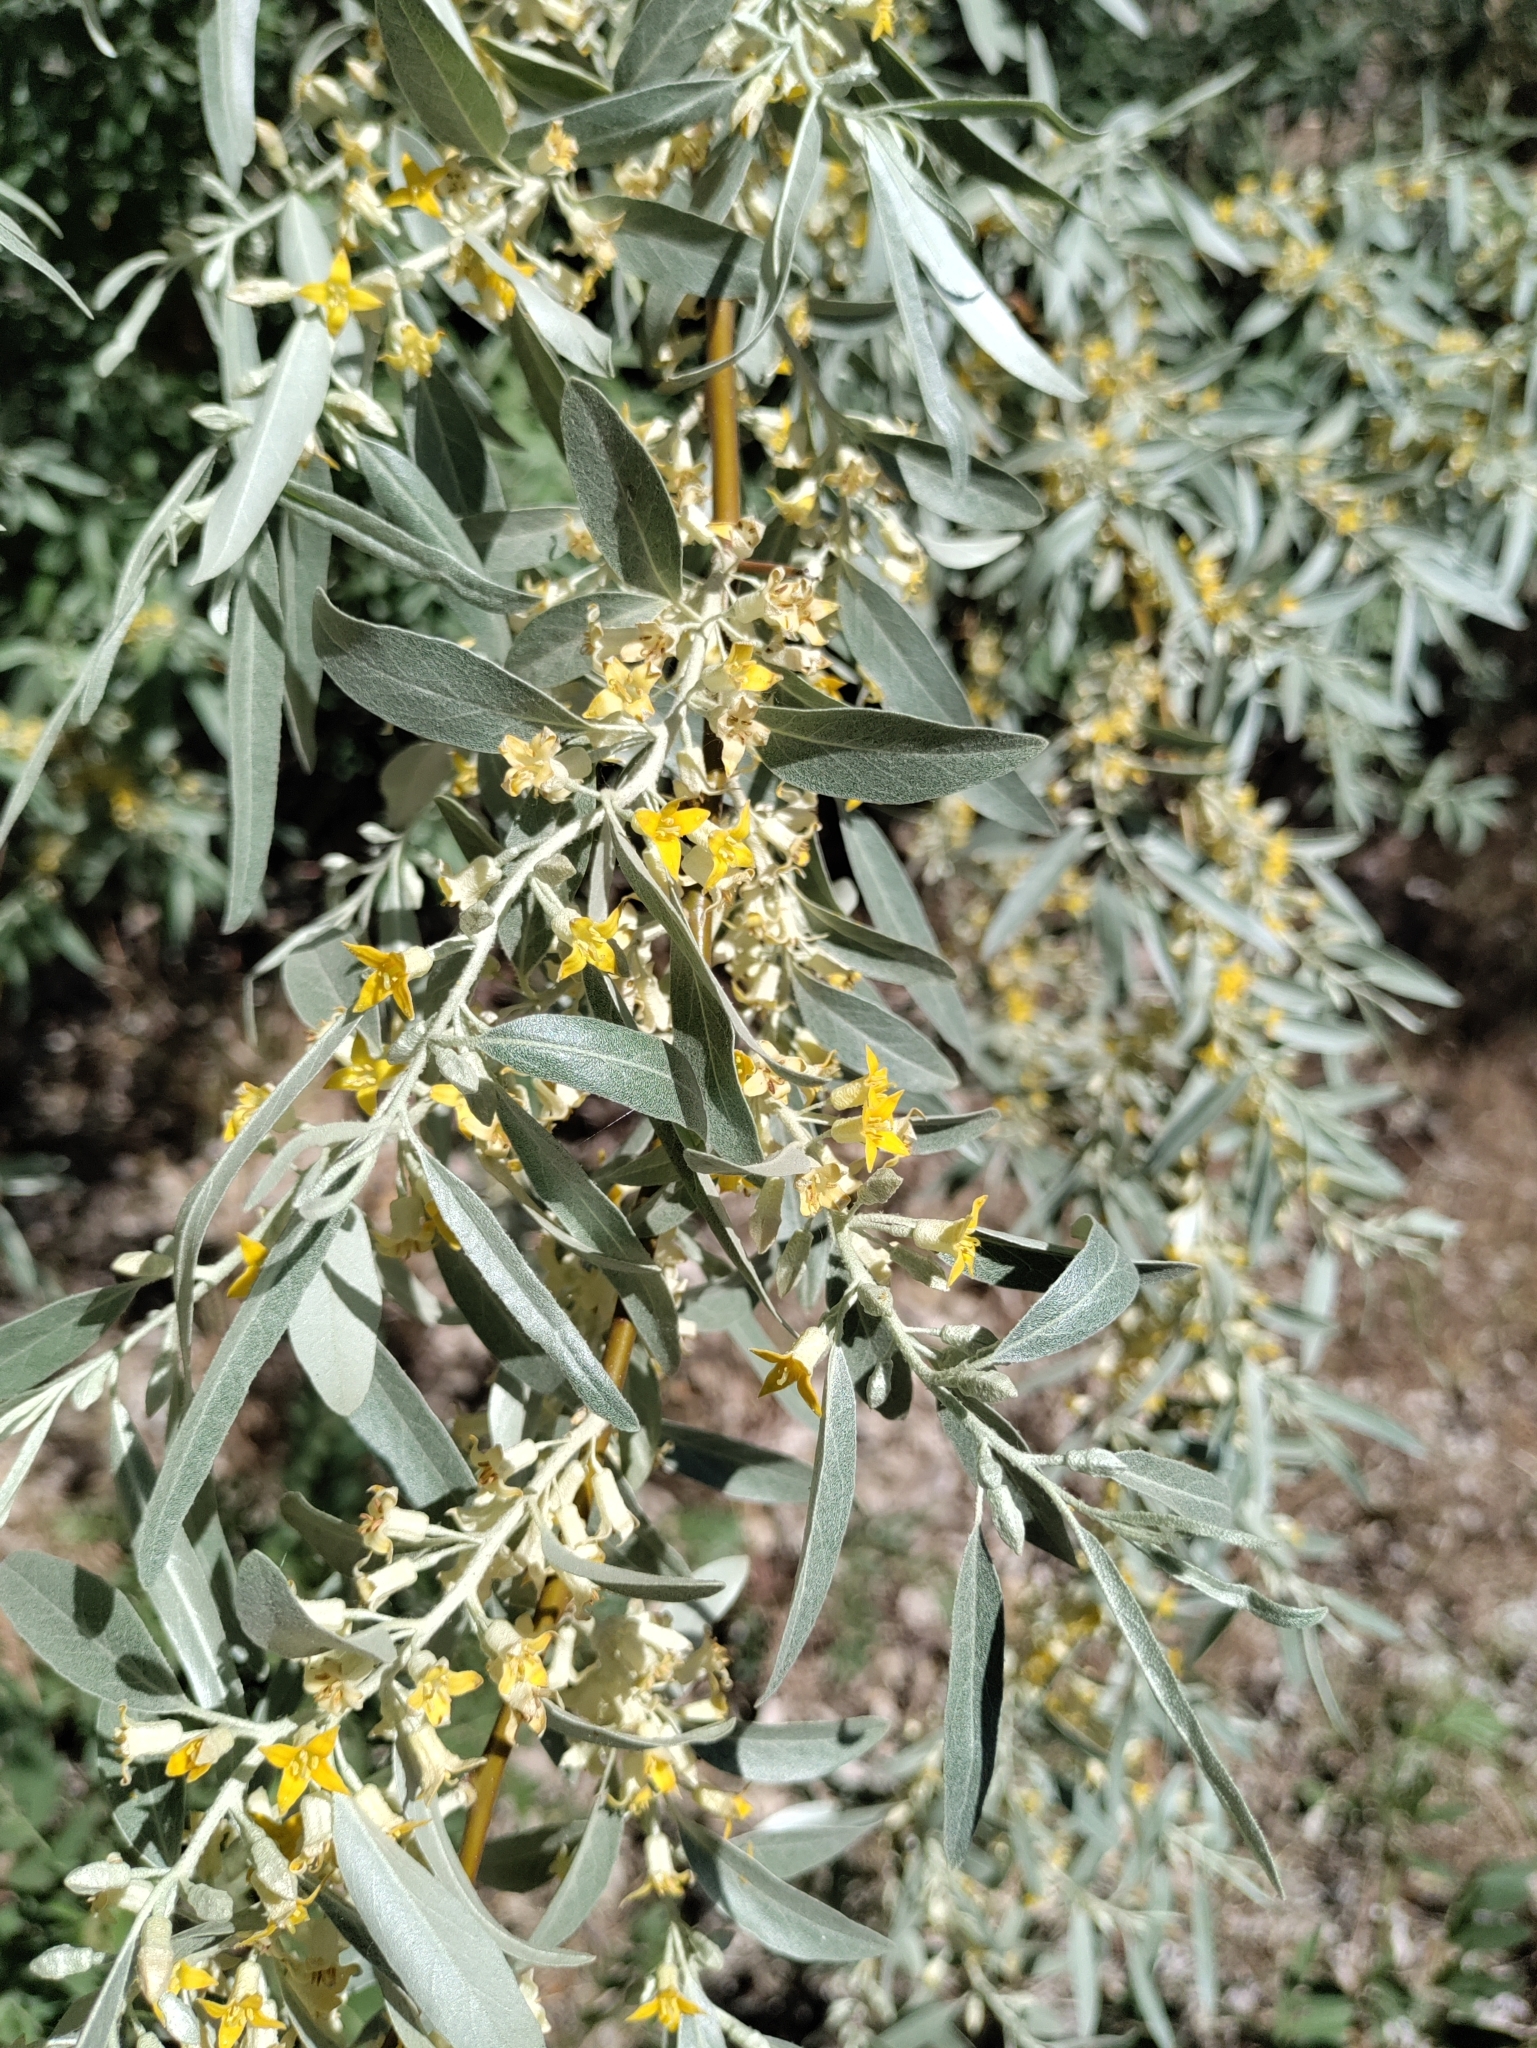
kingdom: Plantae
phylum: Tracheophyta
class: Magnoliopsida
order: Rosales
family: Elaeagnaceae
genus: Elaeagnus
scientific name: Elaeagnus angustifolia
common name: Russian olive
